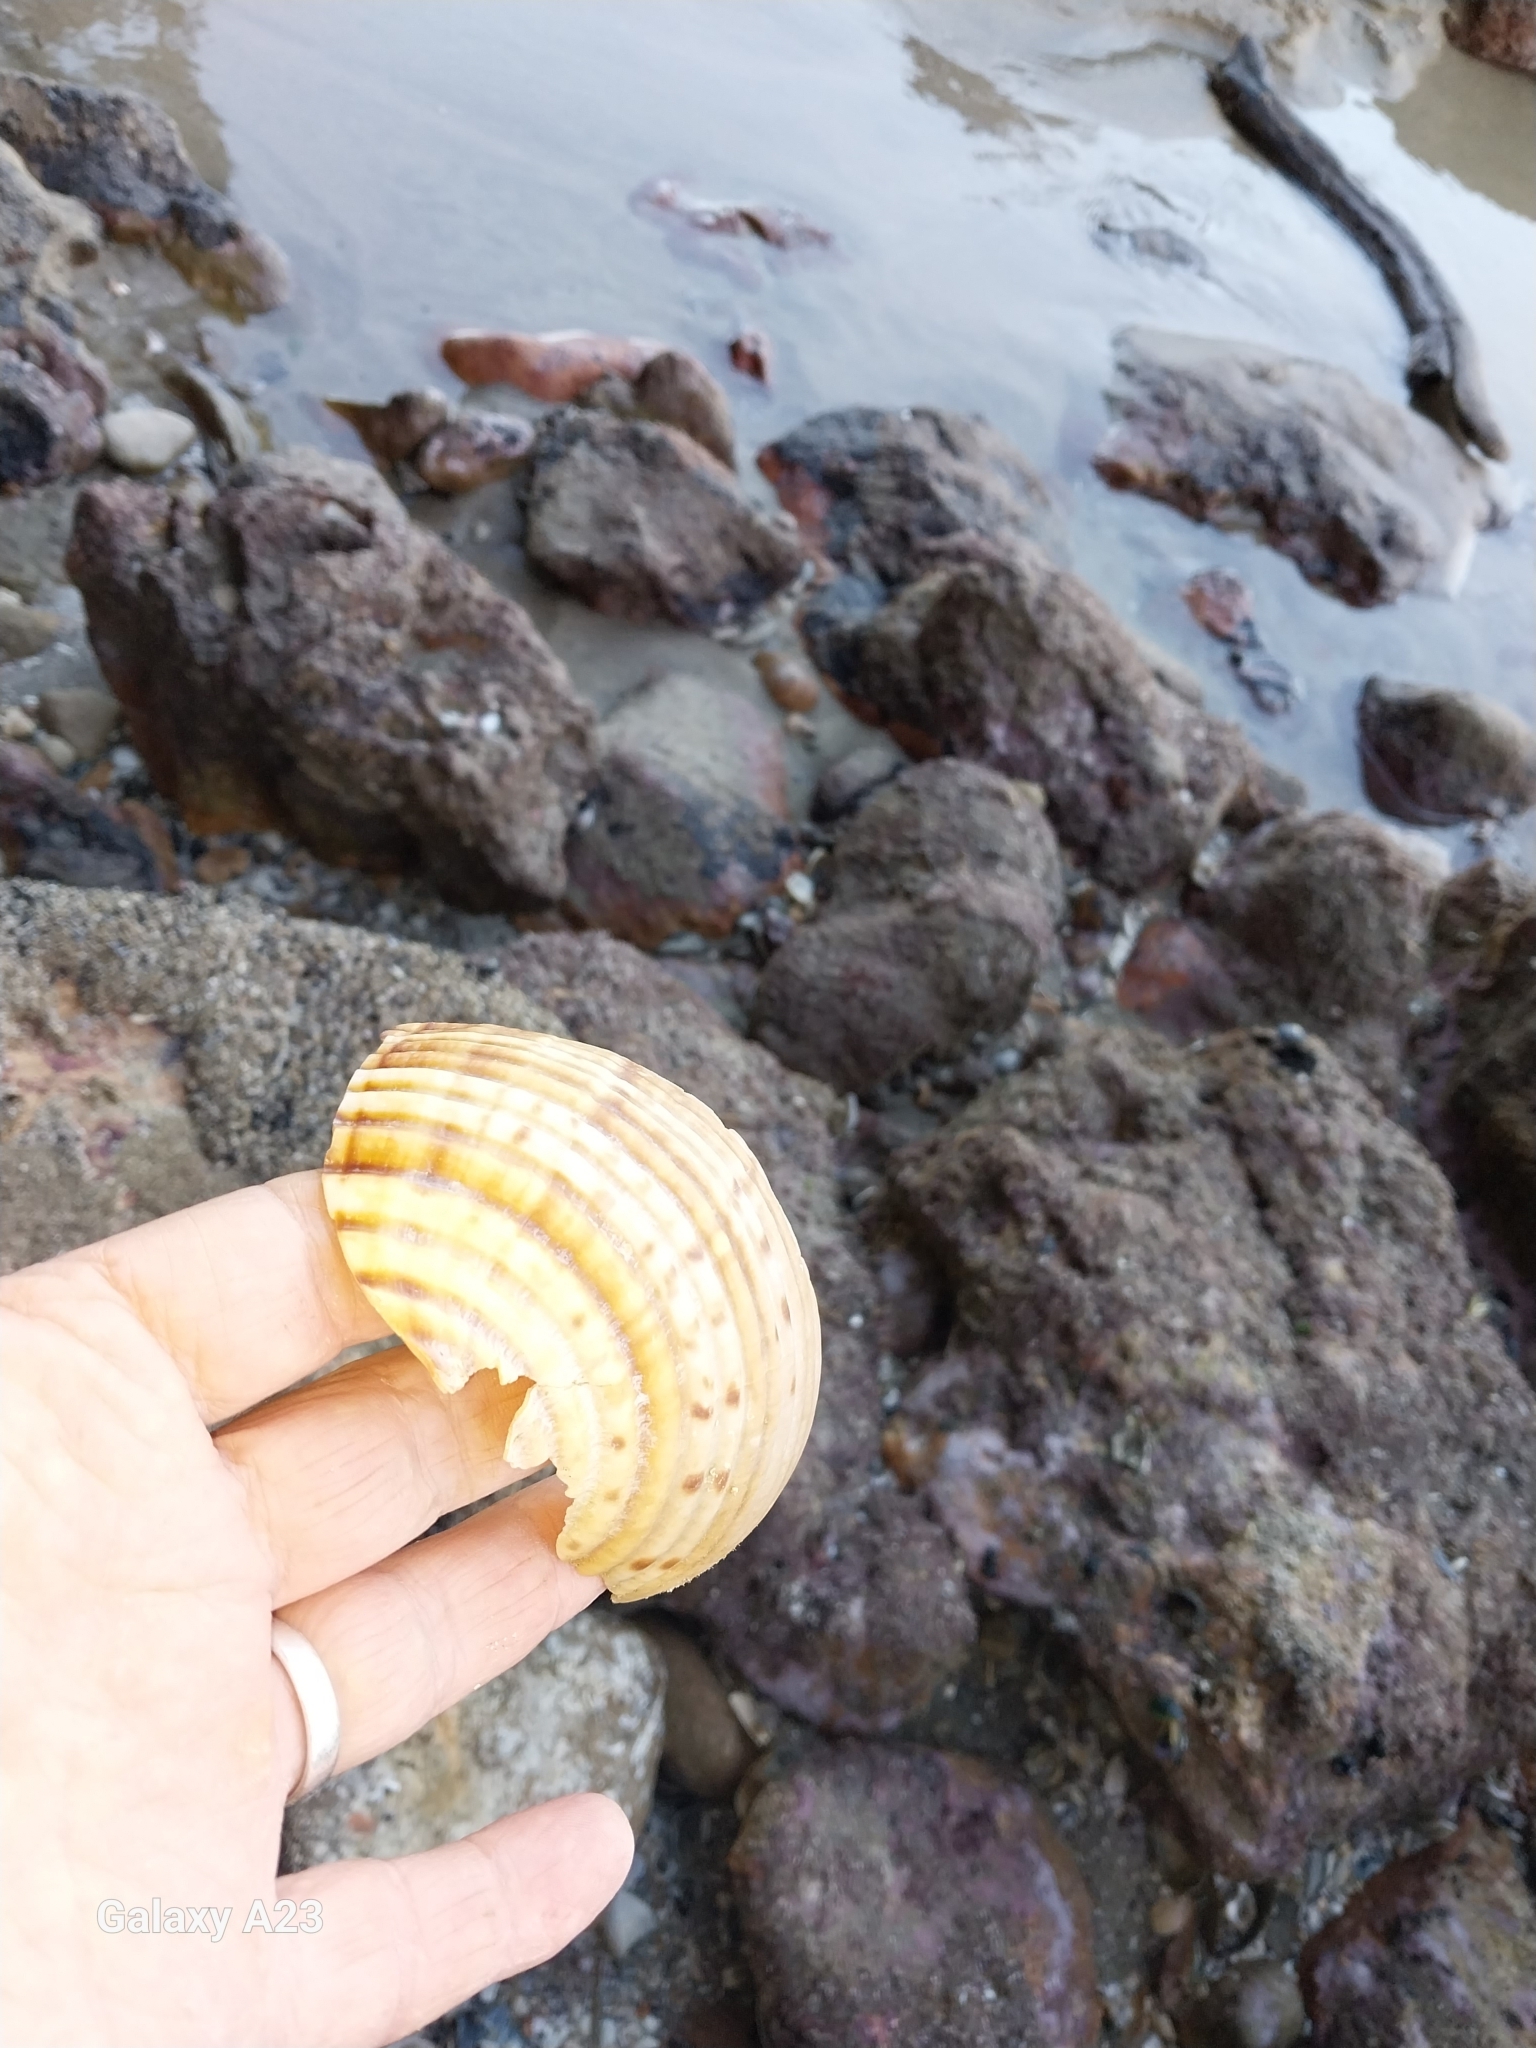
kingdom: Animalia
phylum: Mollusca
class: Gastropoda
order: Littorinimorpha
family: Tonnidae
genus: Tonna
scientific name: Tonna tankervillii
